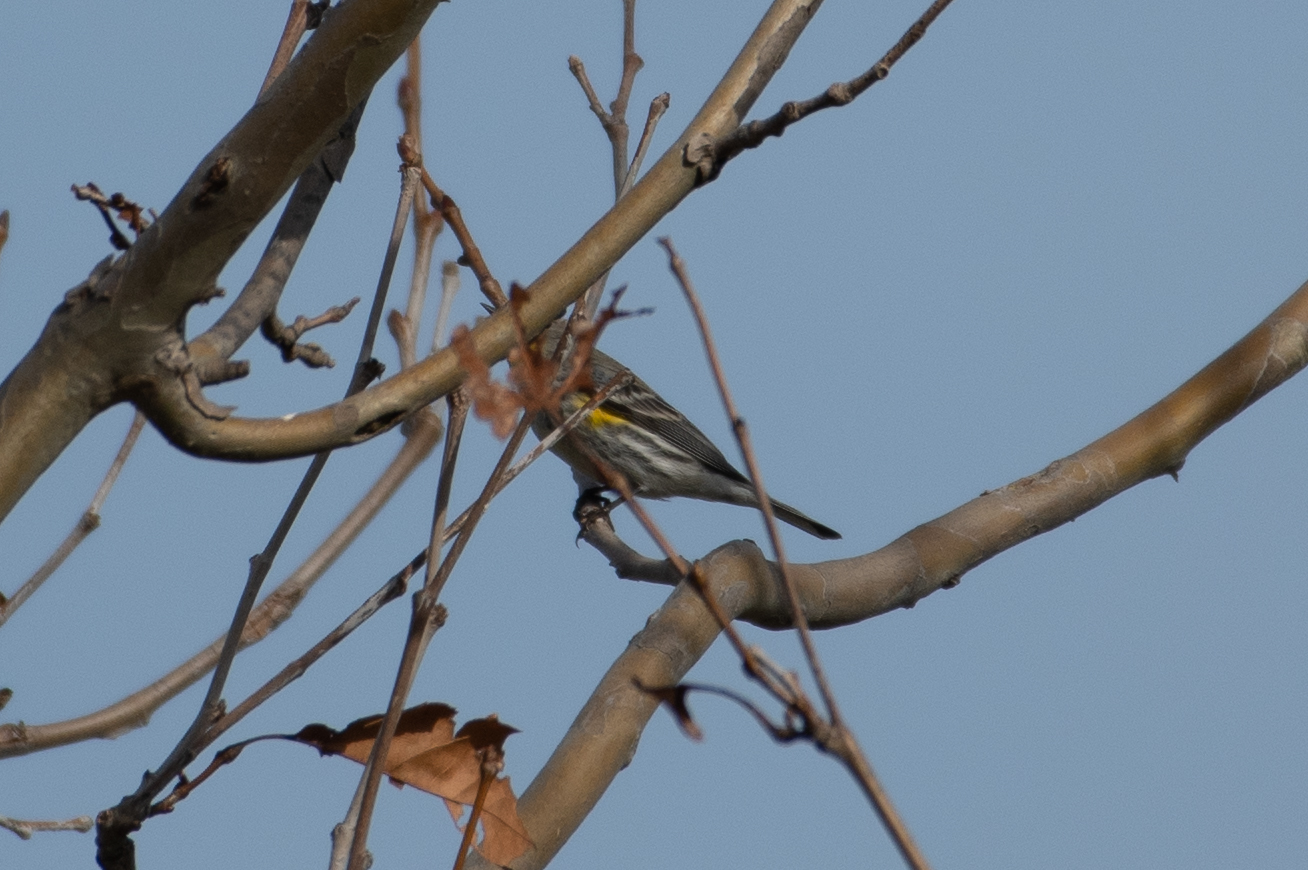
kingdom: Animalia
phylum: Chordata
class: Aves
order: Passeriformes
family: Parulidae
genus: Setophaga
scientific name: Setophaga coronata
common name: Myrtle warbler
